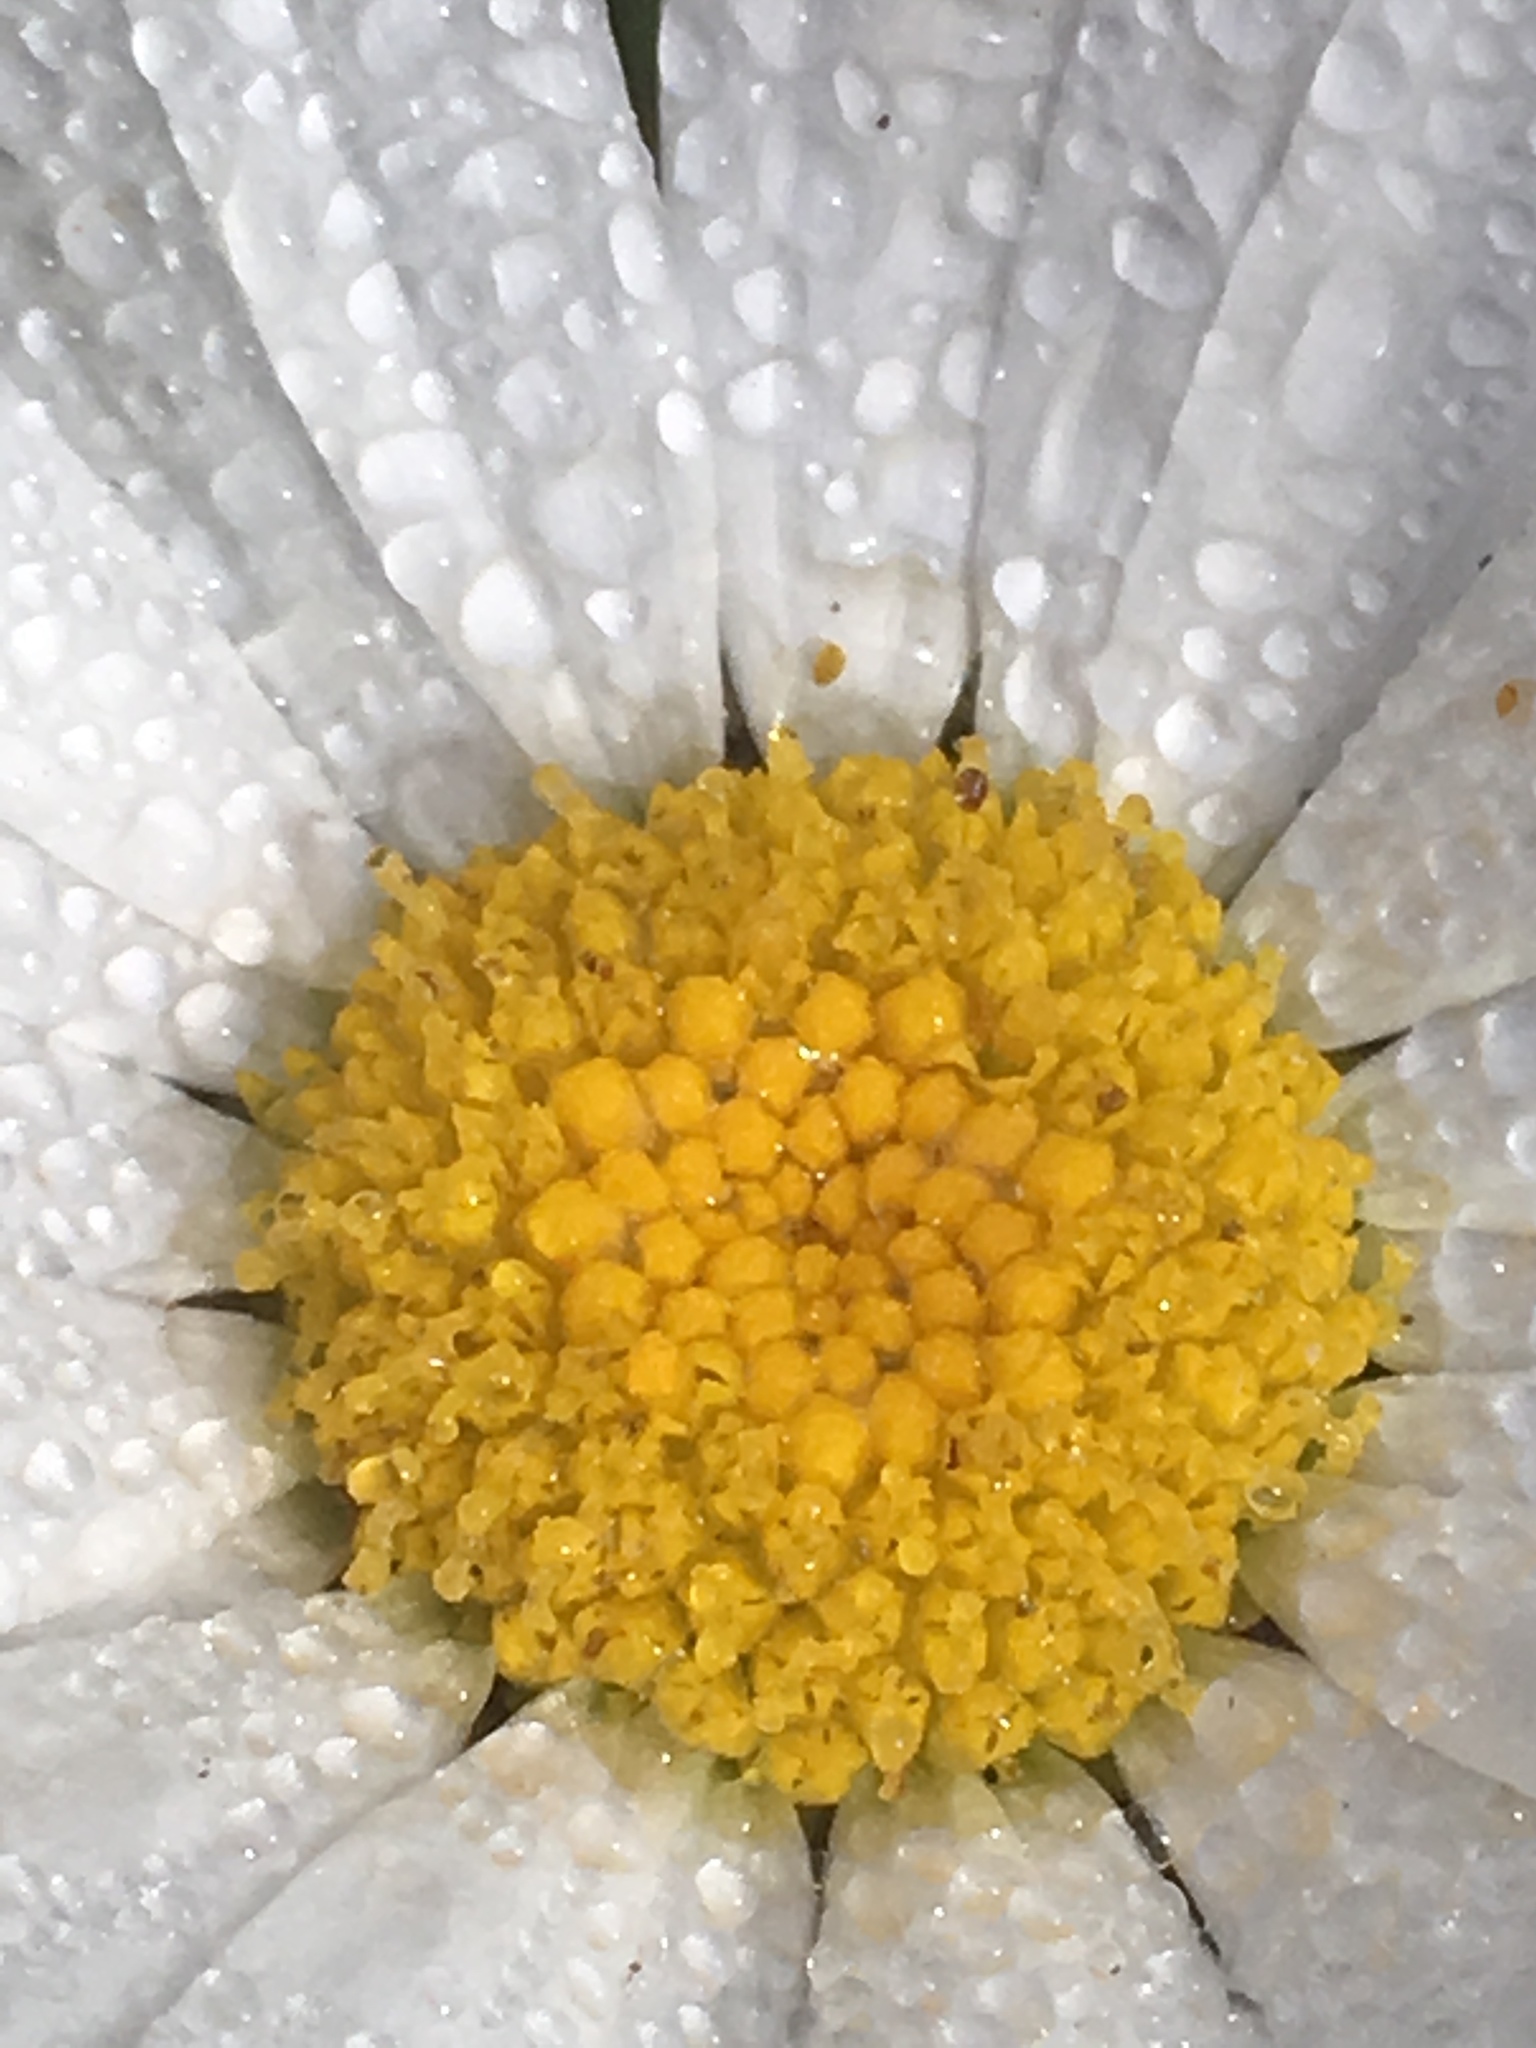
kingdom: Plantae
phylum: Tracheophyta
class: Magnoliopsida
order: Asterales
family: Asteraceae
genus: Leucanthemum
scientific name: Leucanthemum vulgare
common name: Oxeye daisy
